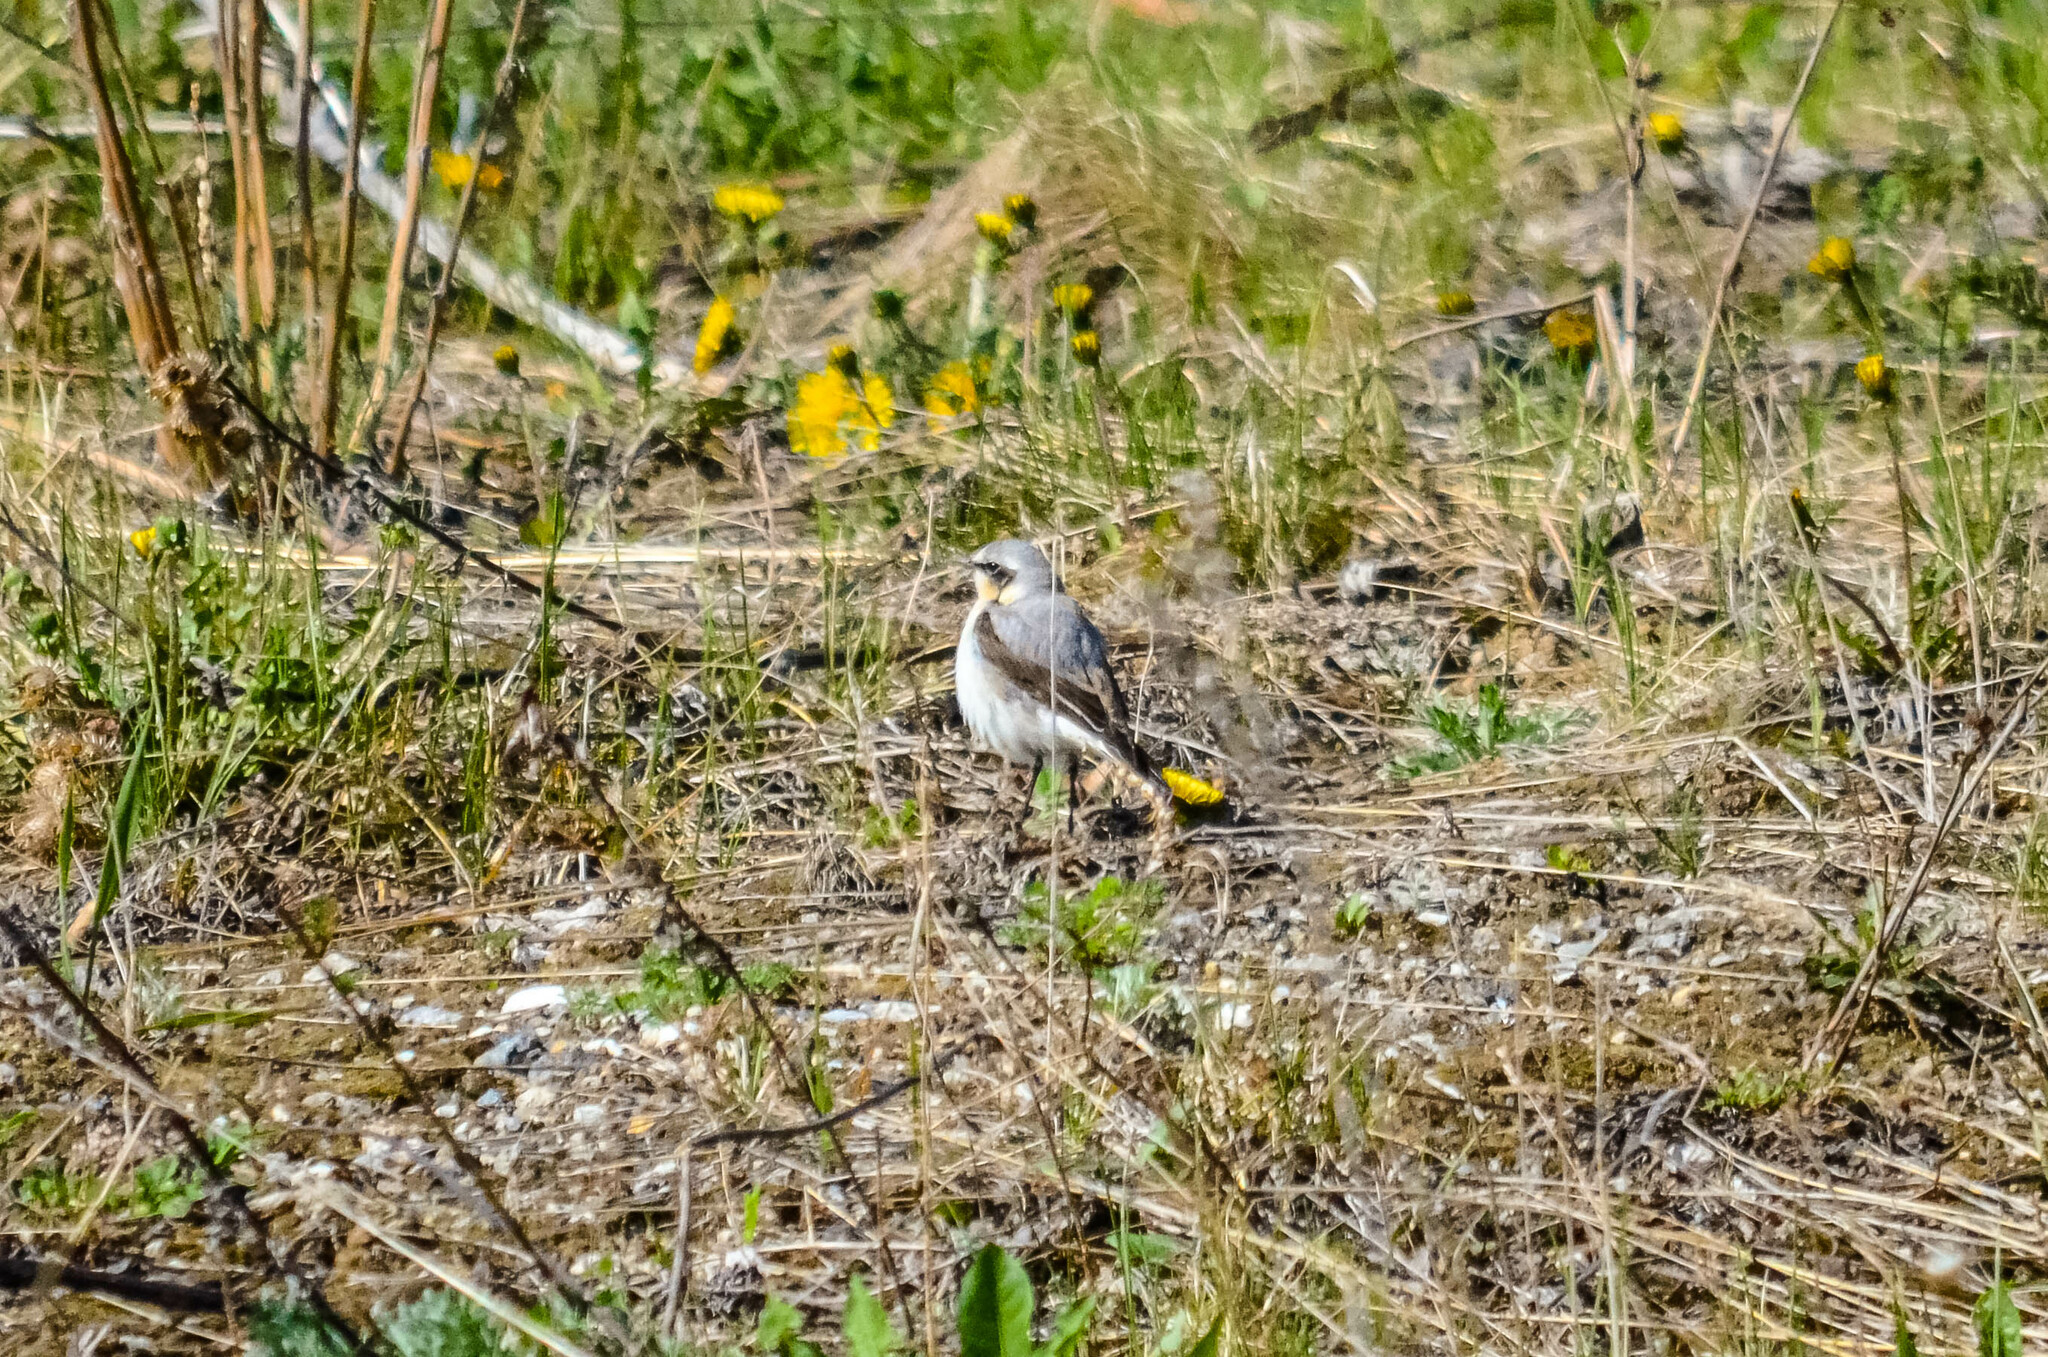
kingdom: Animalia
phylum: Chordata
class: Aves
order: Passeriformes
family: Muscicapidae
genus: Oenanthe
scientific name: Oenanthe oenanthe
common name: Northern wheatear
